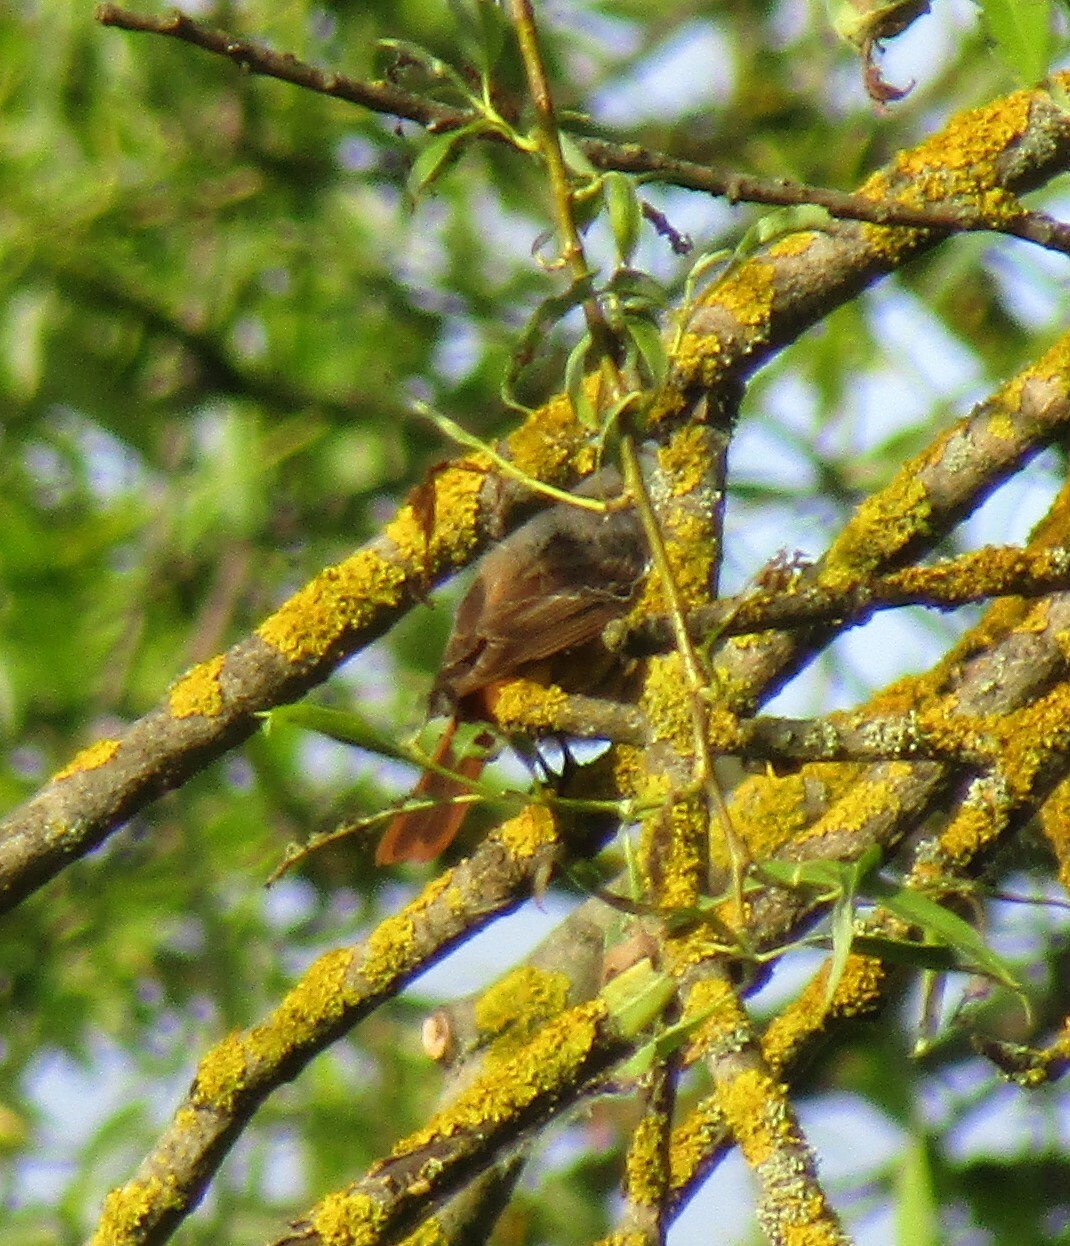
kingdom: Animalia
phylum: Chordata
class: Aves
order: Passeriformes
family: Muscicapidae
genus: Phoenicurus
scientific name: Phoenicurus phoenicurus
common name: Common redstart
